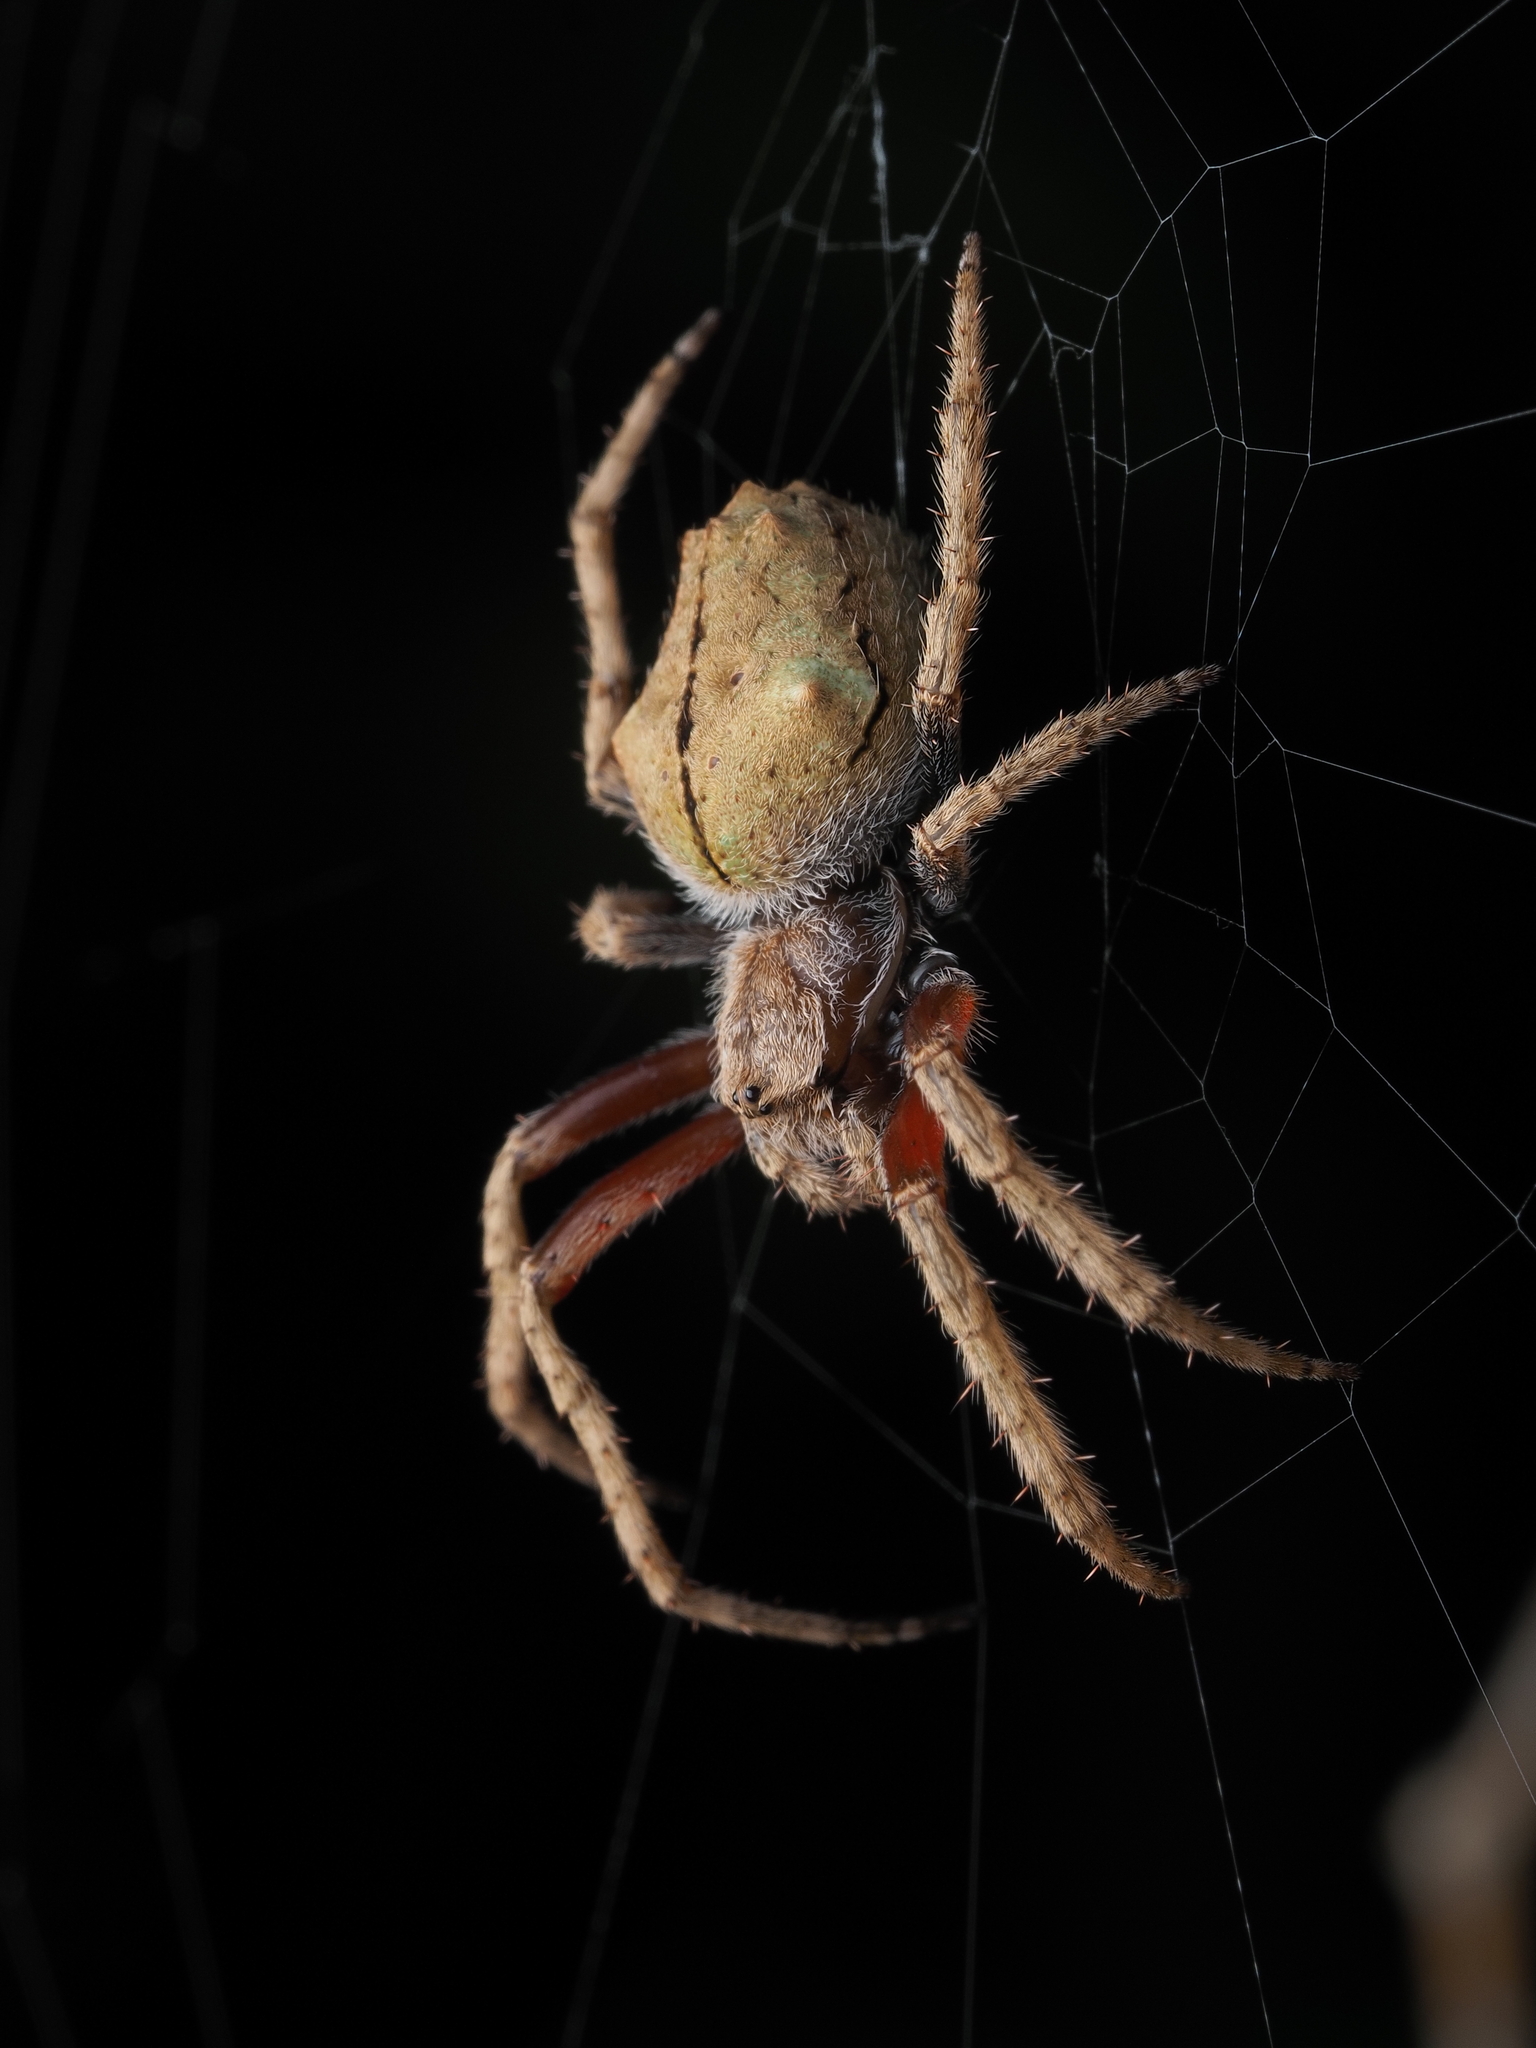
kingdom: Animalia
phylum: Arthropoda
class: Arachnida
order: Araneae
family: Araneidae
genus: Eriophora
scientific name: Eriophora pustulosa
